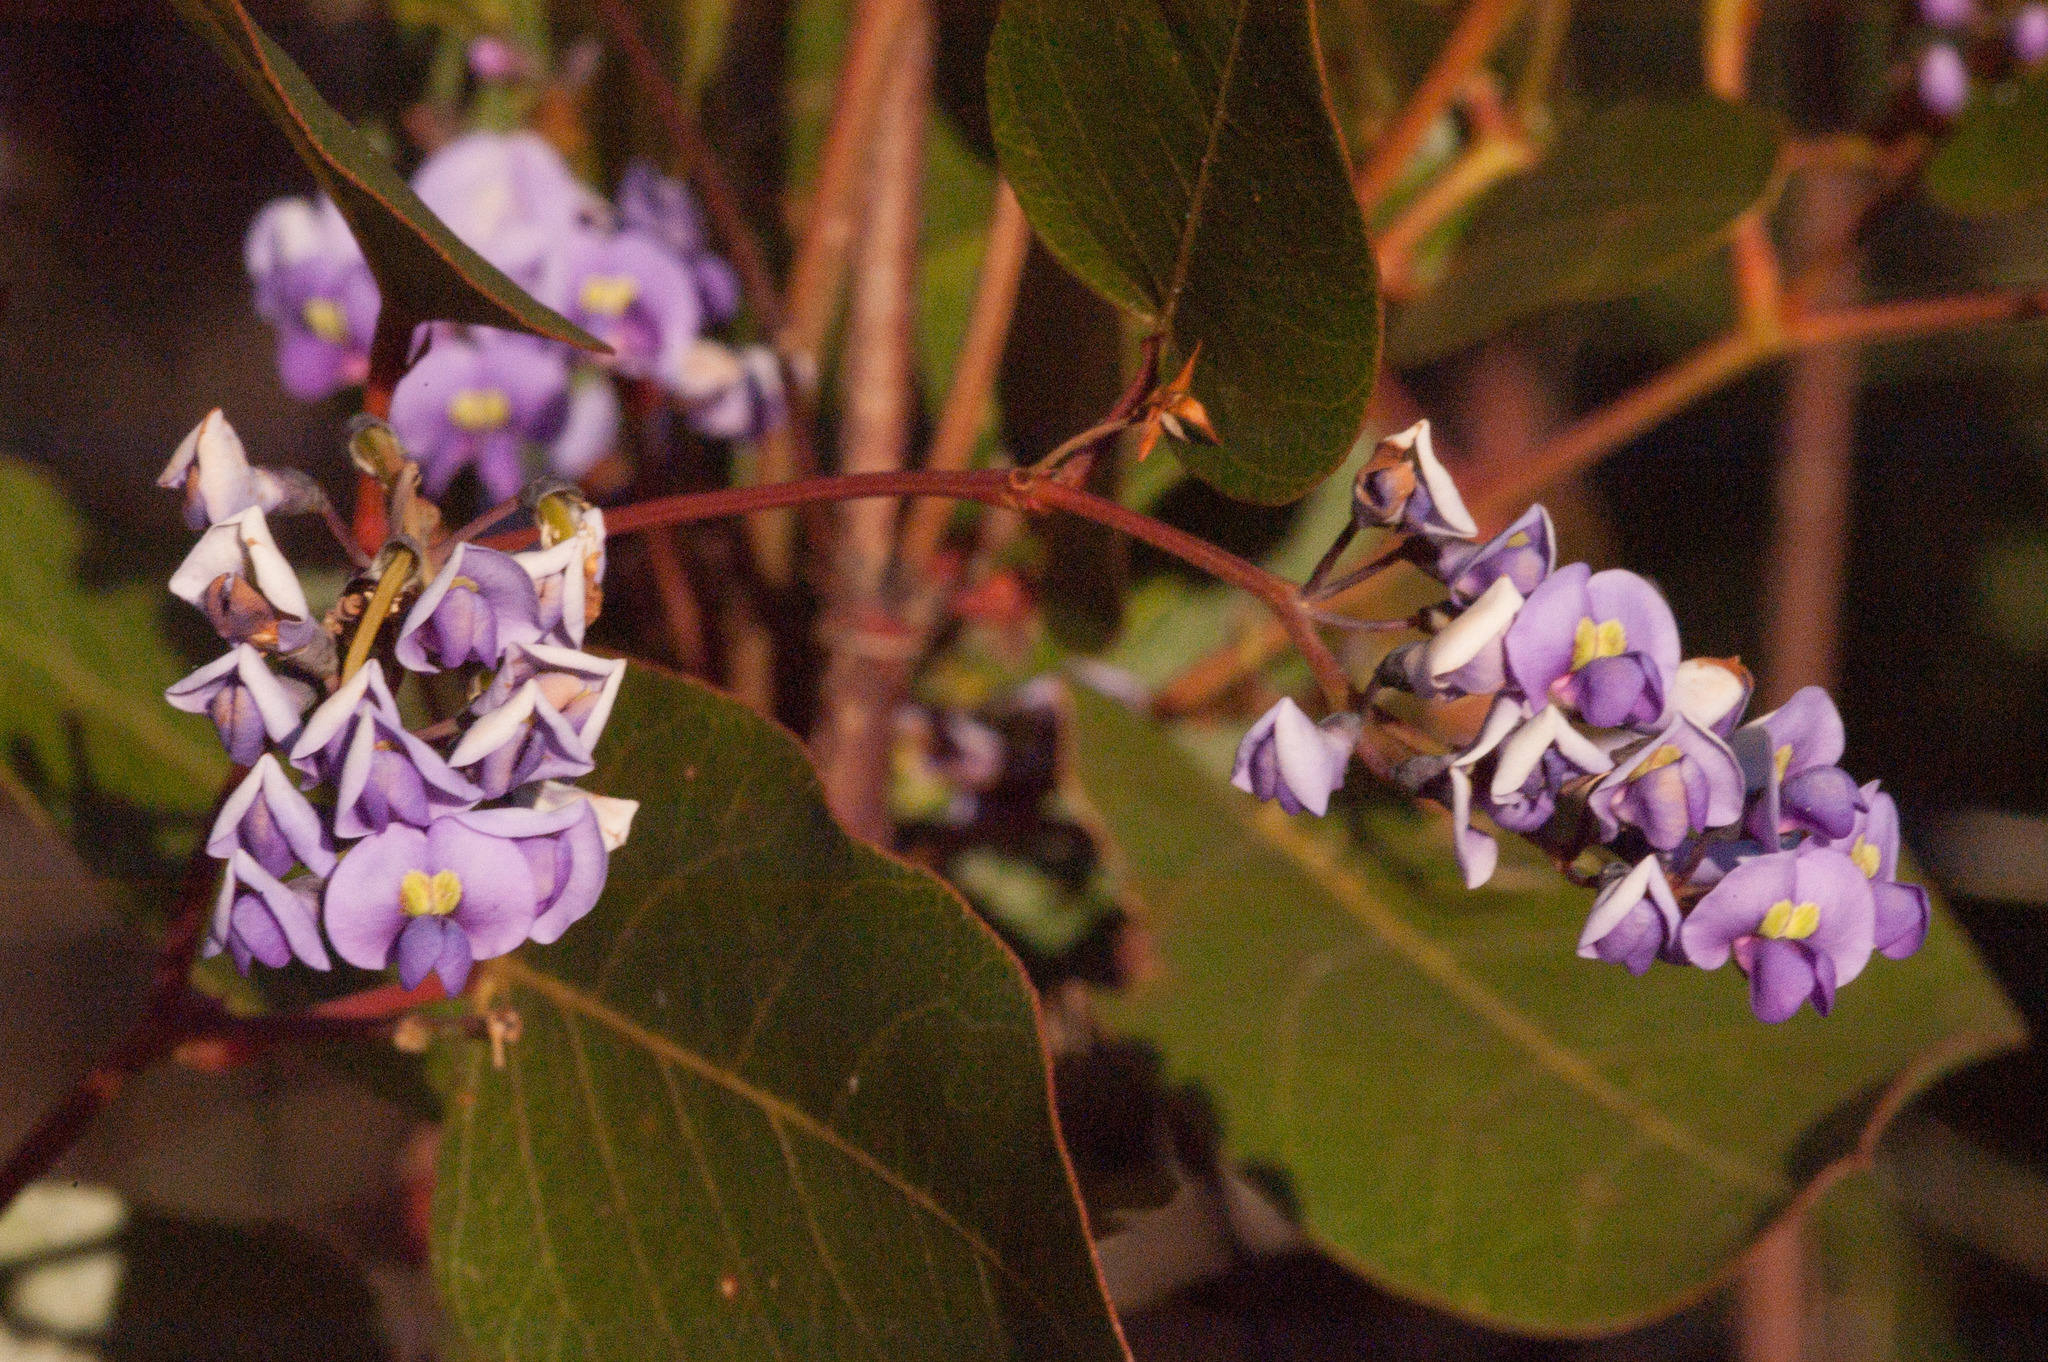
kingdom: Plantae
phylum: Tracheophyta
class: Magnoliopsida
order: Fabales
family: Fabaceae
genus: Hardenbergia
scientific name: Hardenbergia violacea
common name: Coral-pea
